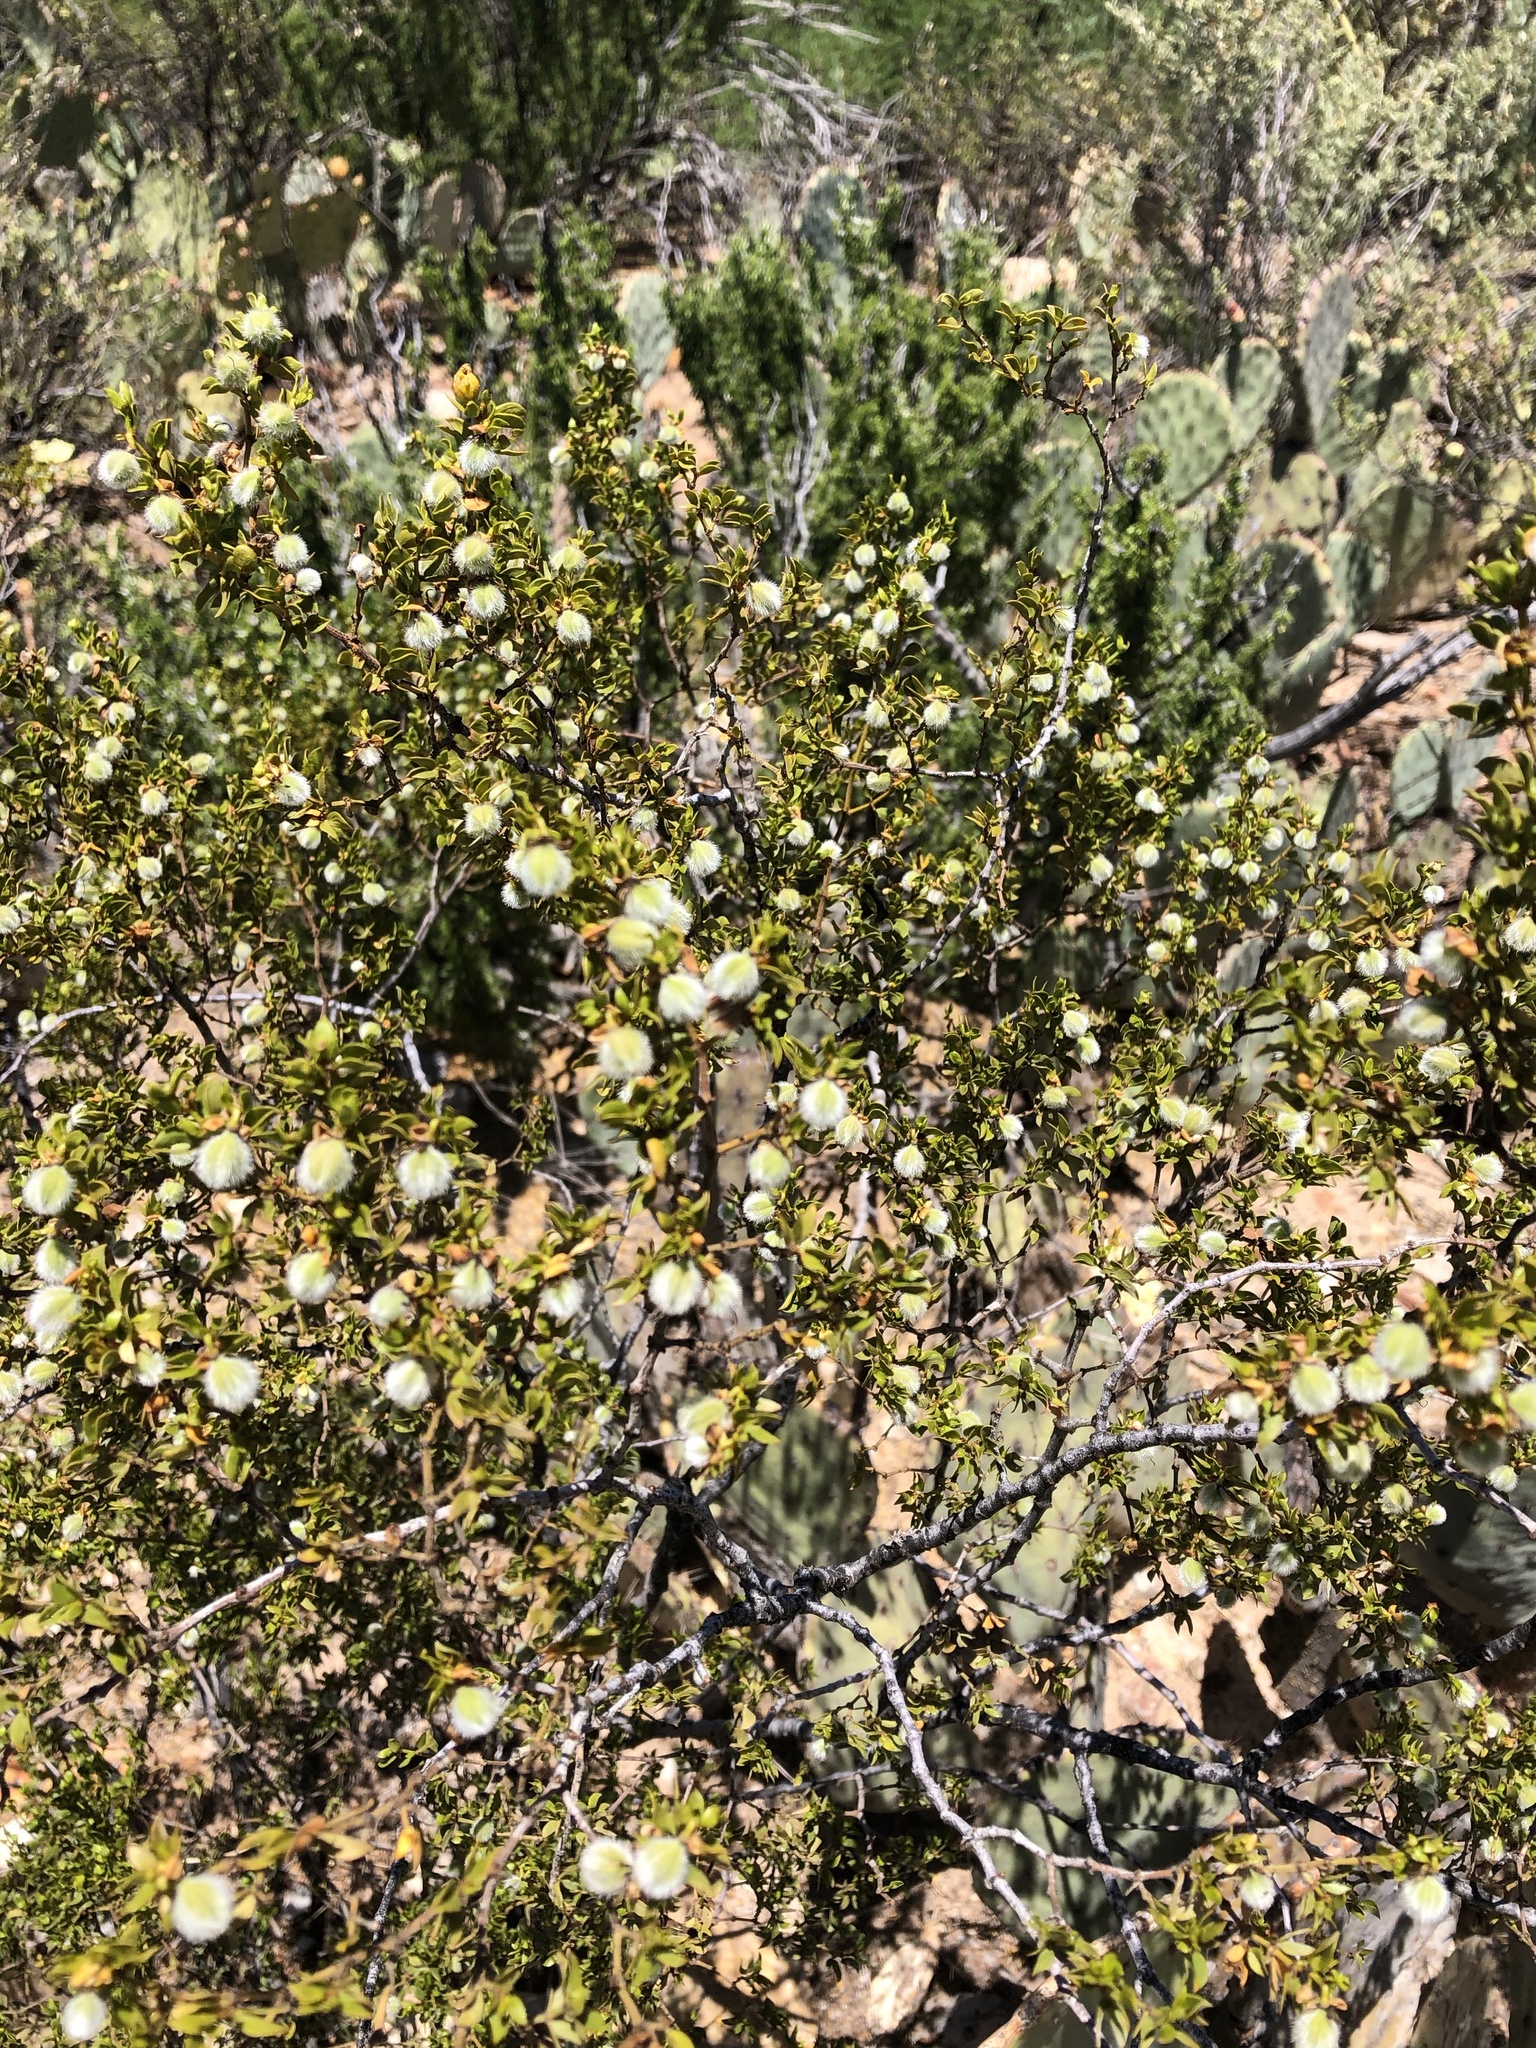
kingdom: Plantae
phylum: Tracheophyta
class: Magnoliopsida
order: Zygophyllales
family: Zygophyllaceae
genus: Larrea
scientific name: Larrea tridentata
